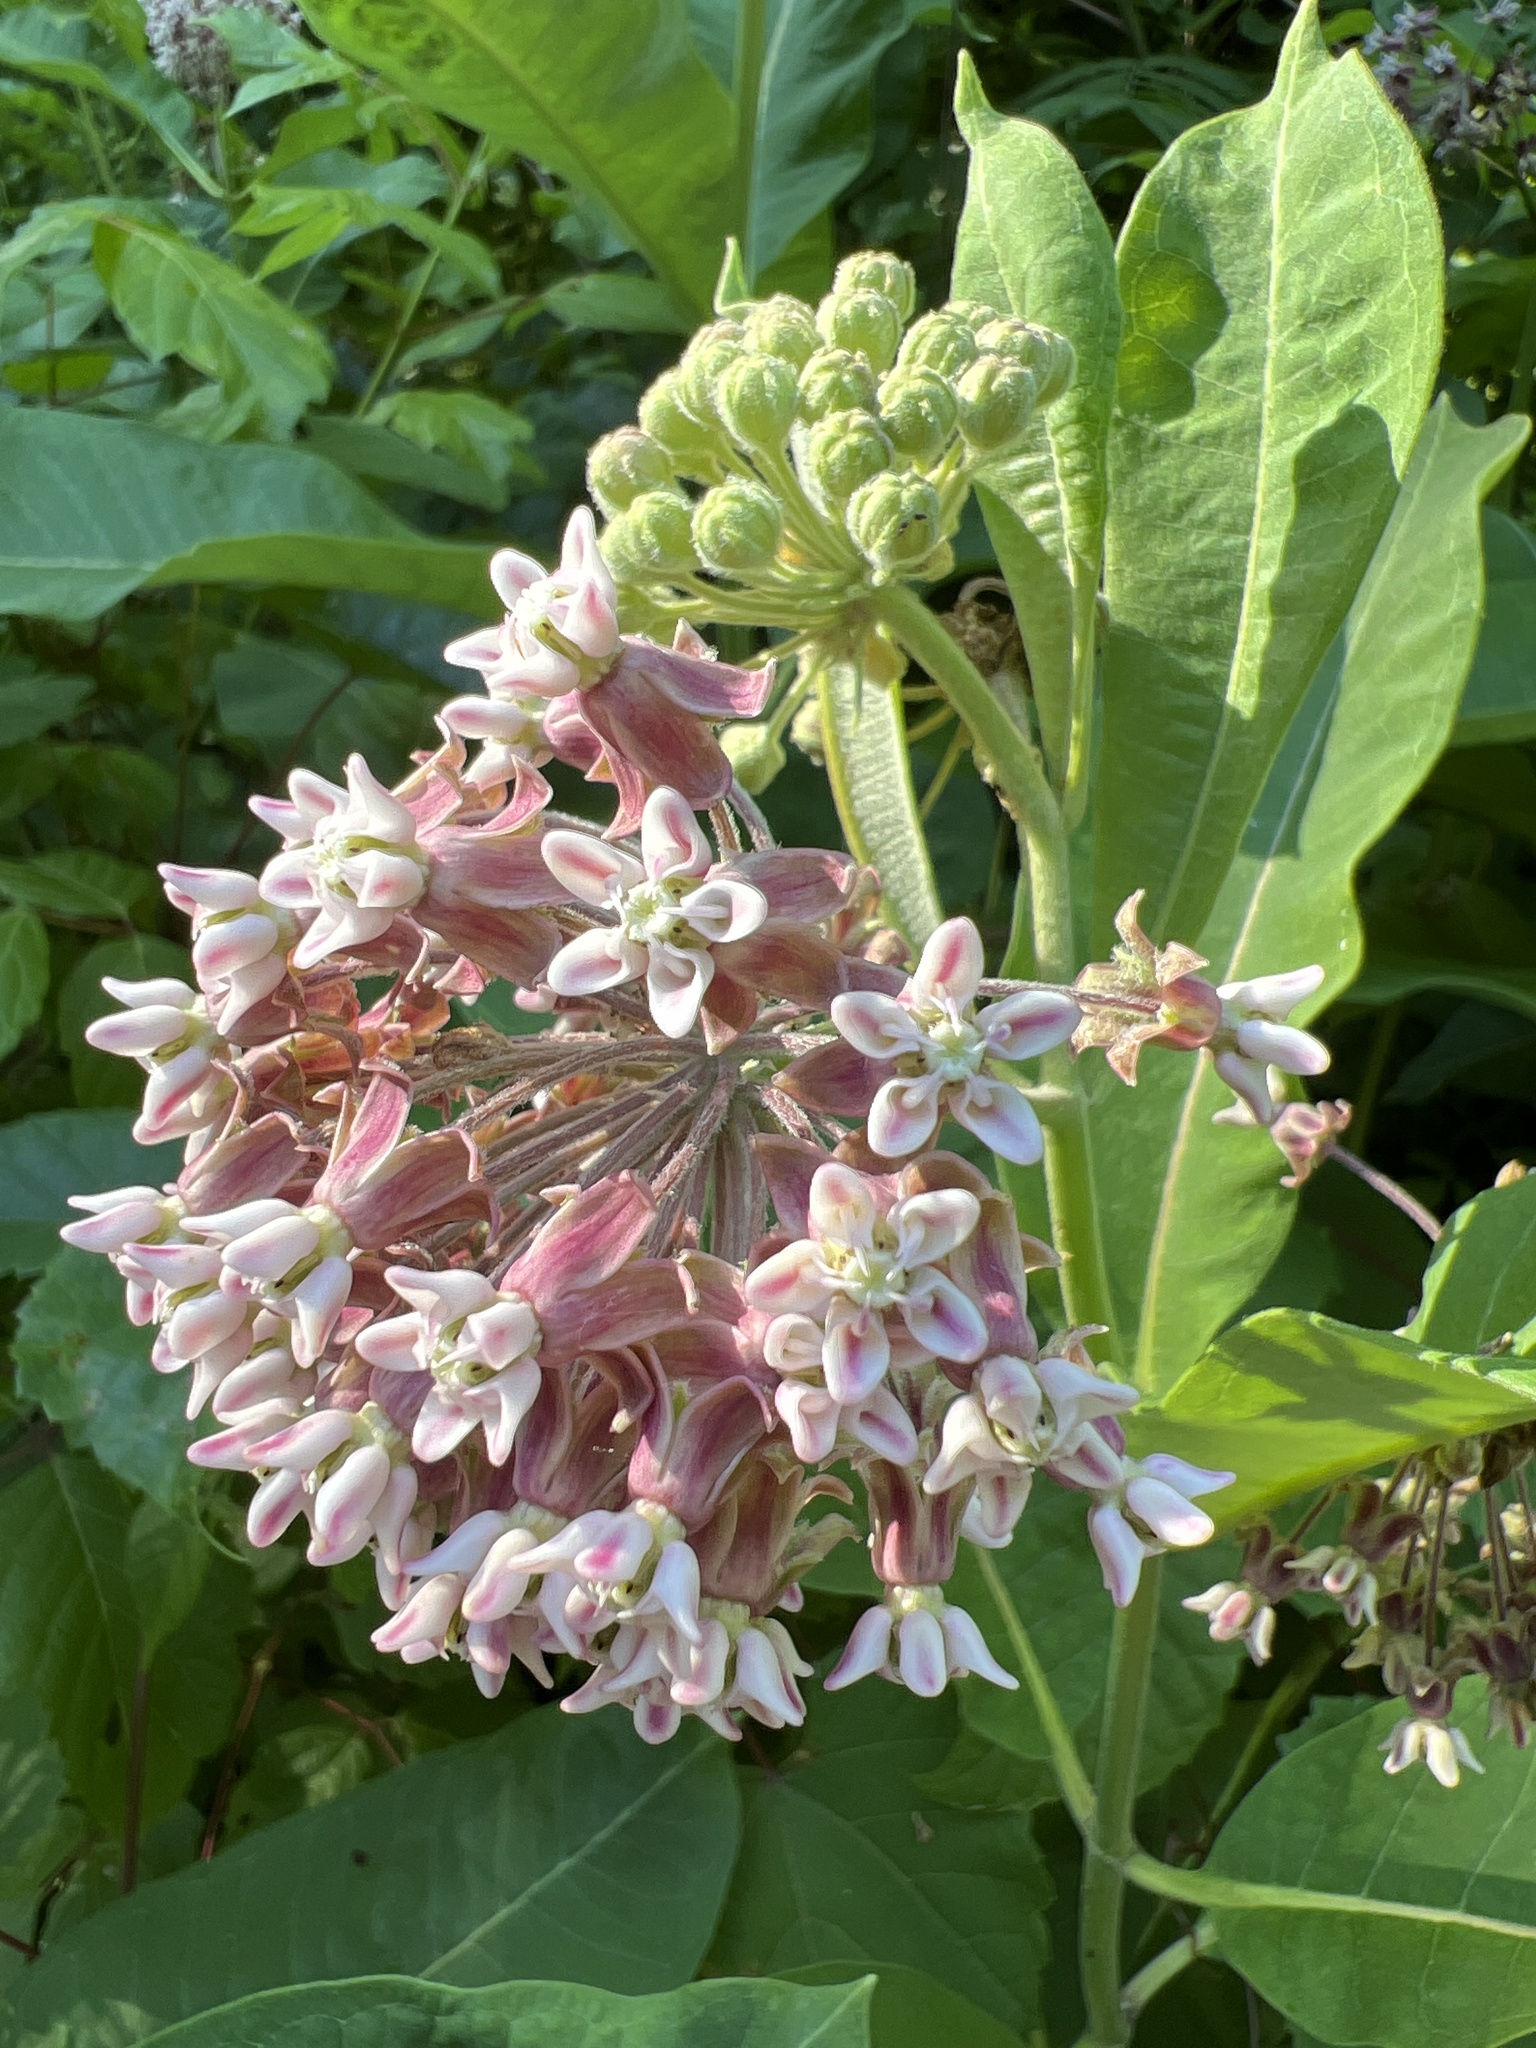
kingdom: Plantae
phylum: Tracheophyta
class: Magnoliopsida
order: Gentianales
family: Apocynaceae
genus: Asclepias
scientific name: Asclepias syriaca
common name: Common milkweed
